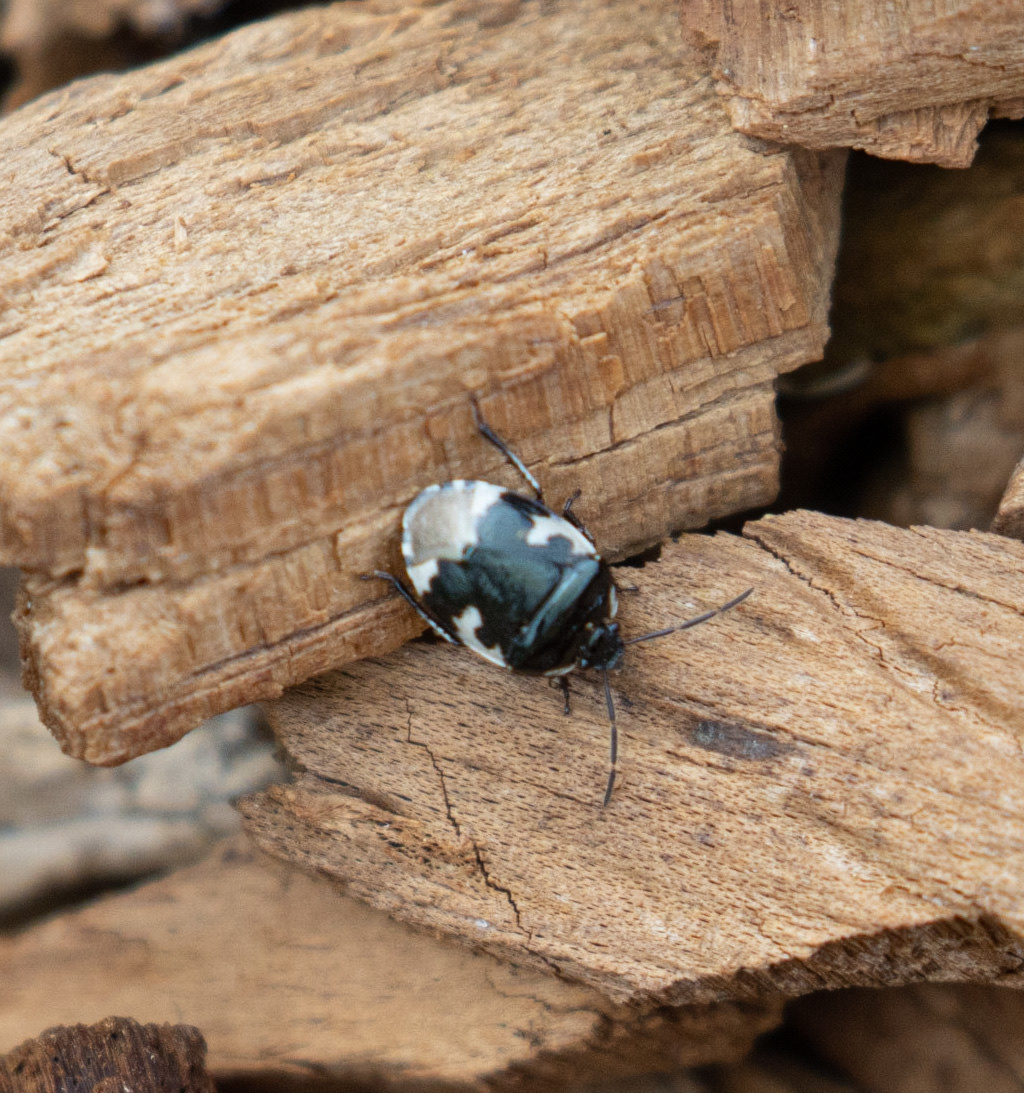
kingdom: Animalia
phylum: Arthropoda
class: Insecta
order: Hemiptera
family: Cydnidae
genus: Tritomegas
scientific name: Tritomegas bicolor
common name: Pied shieldbug
